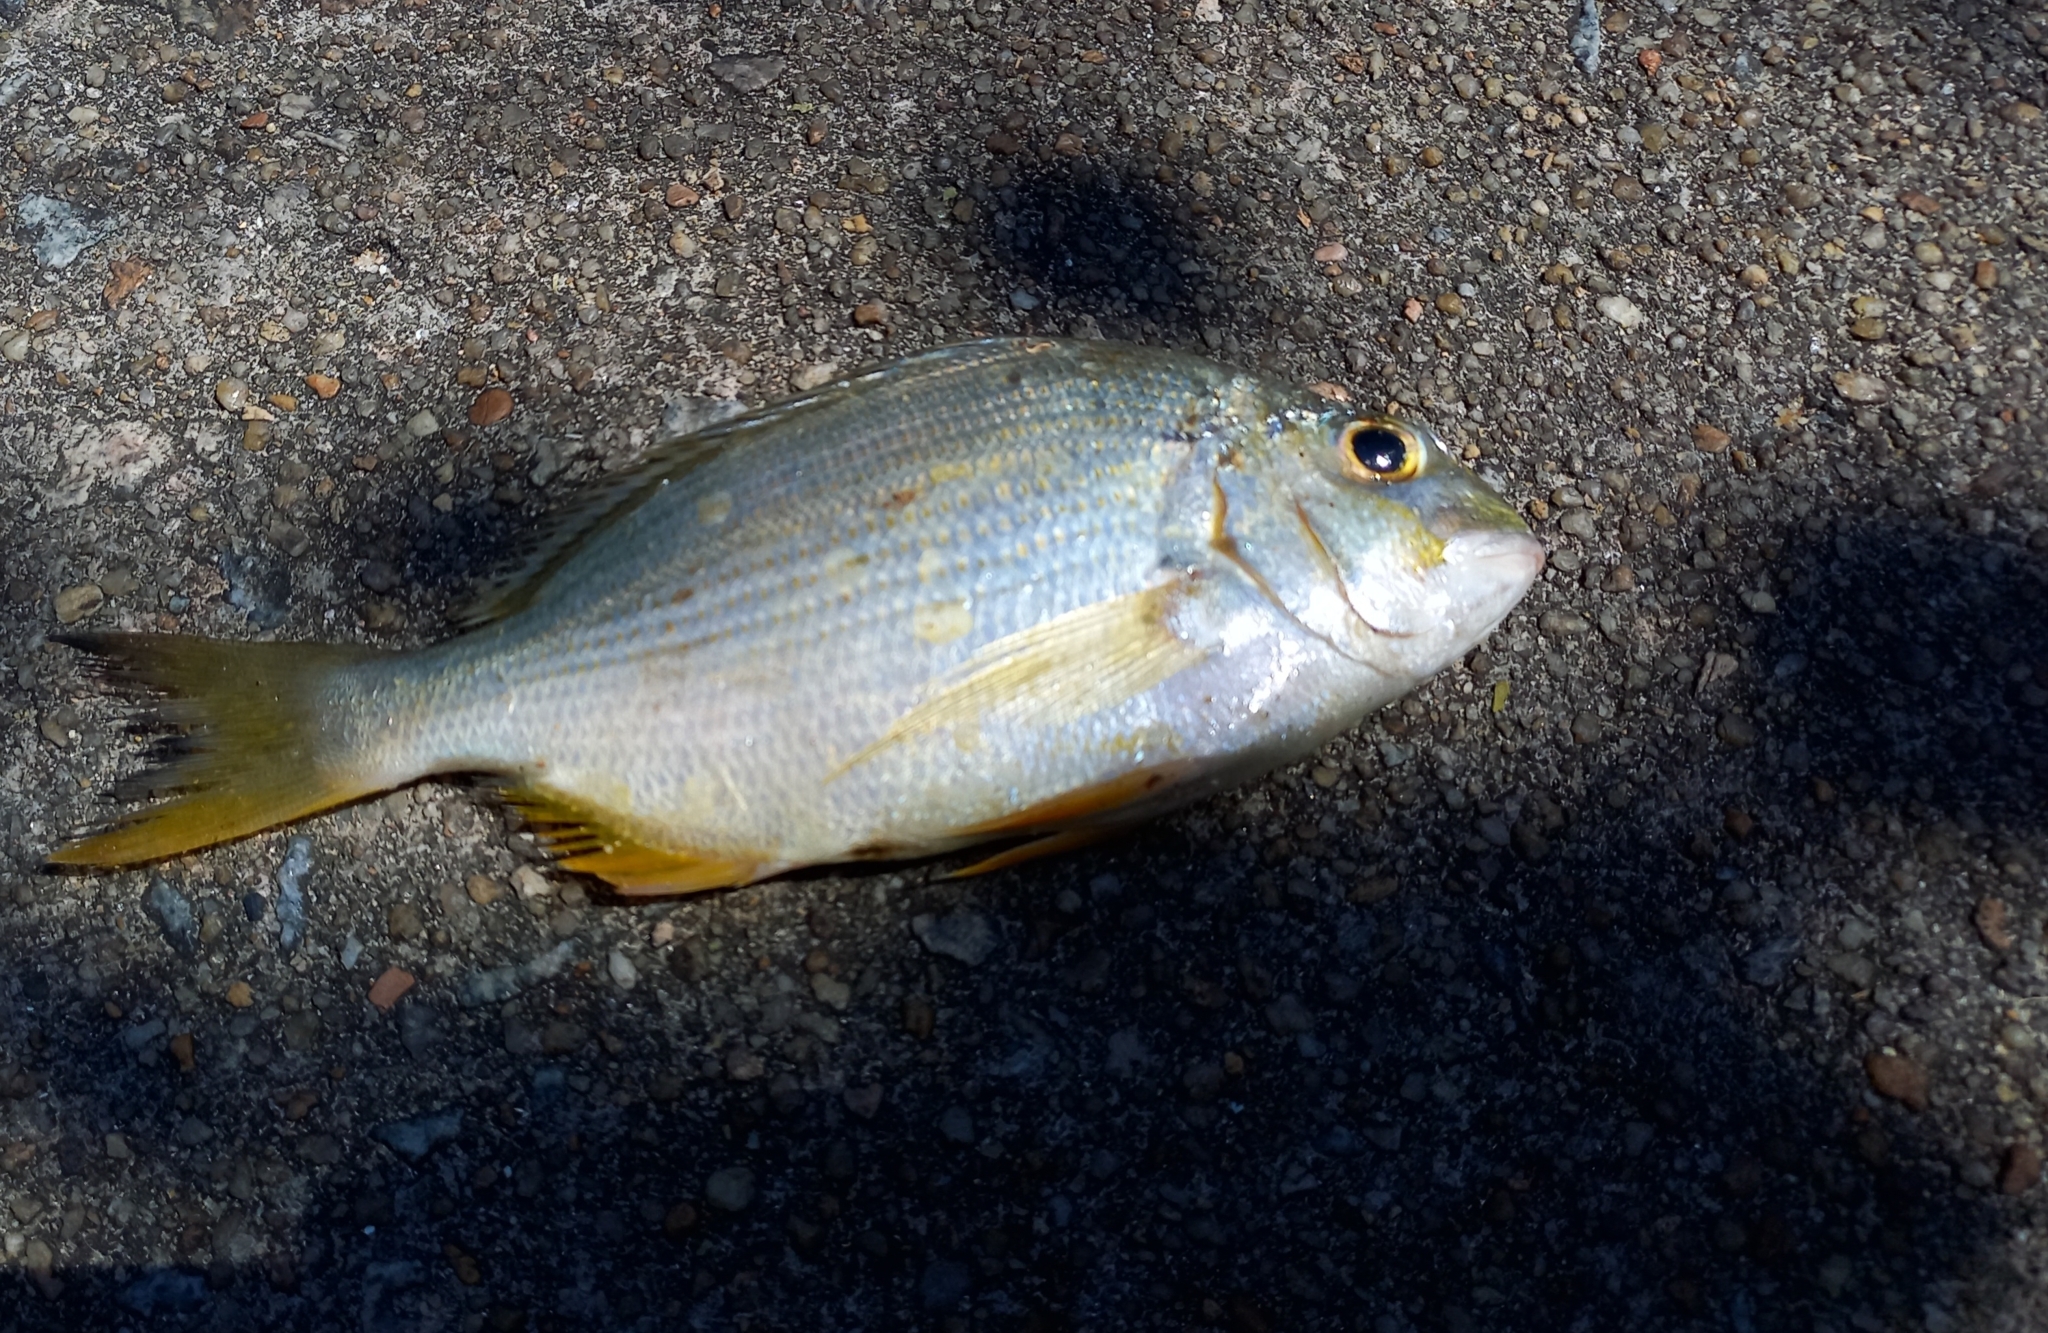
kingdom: Animalia
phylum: Chordata
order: Perciformes
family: Sparidae
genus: Rhabdosargus
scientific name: Rhabdosargus sarba
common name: Goldlined seabream
